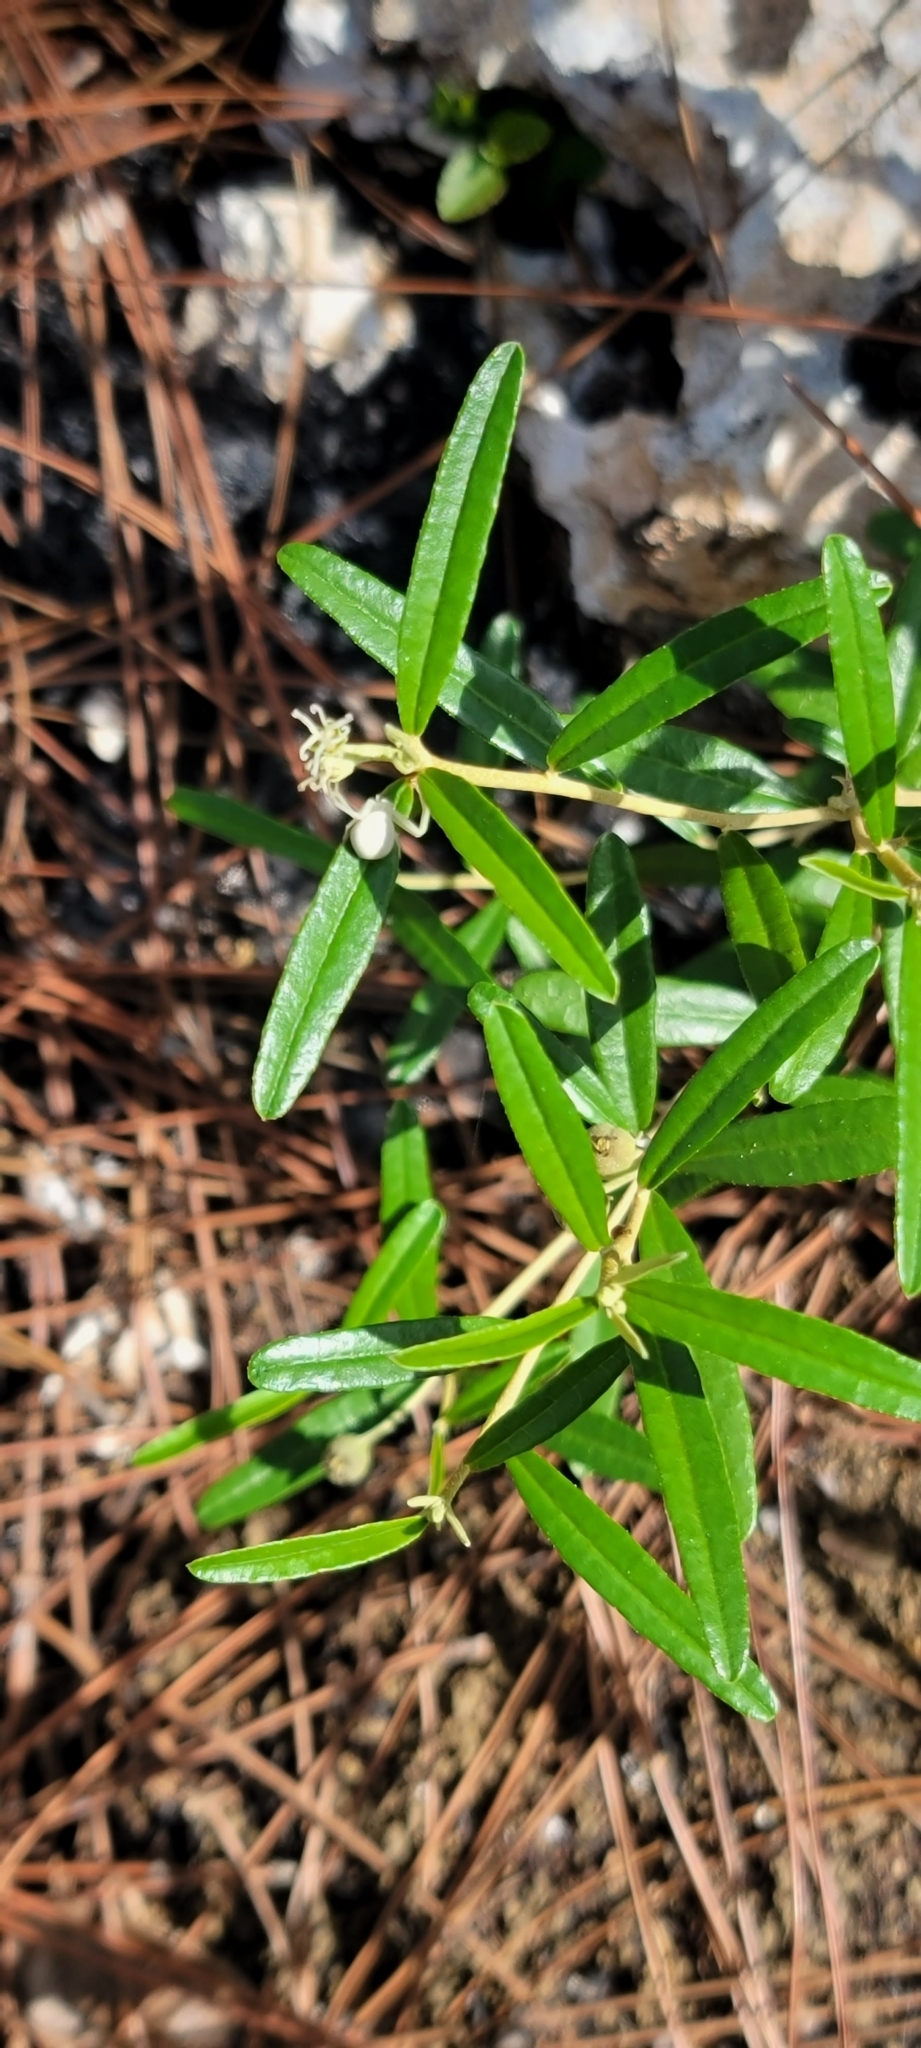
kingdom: Plantae
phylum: Tracheophyta
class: Magnoliopsida
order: Malpighiales
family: Euphorbiaceae
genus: Croton
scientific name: Croton linearis
